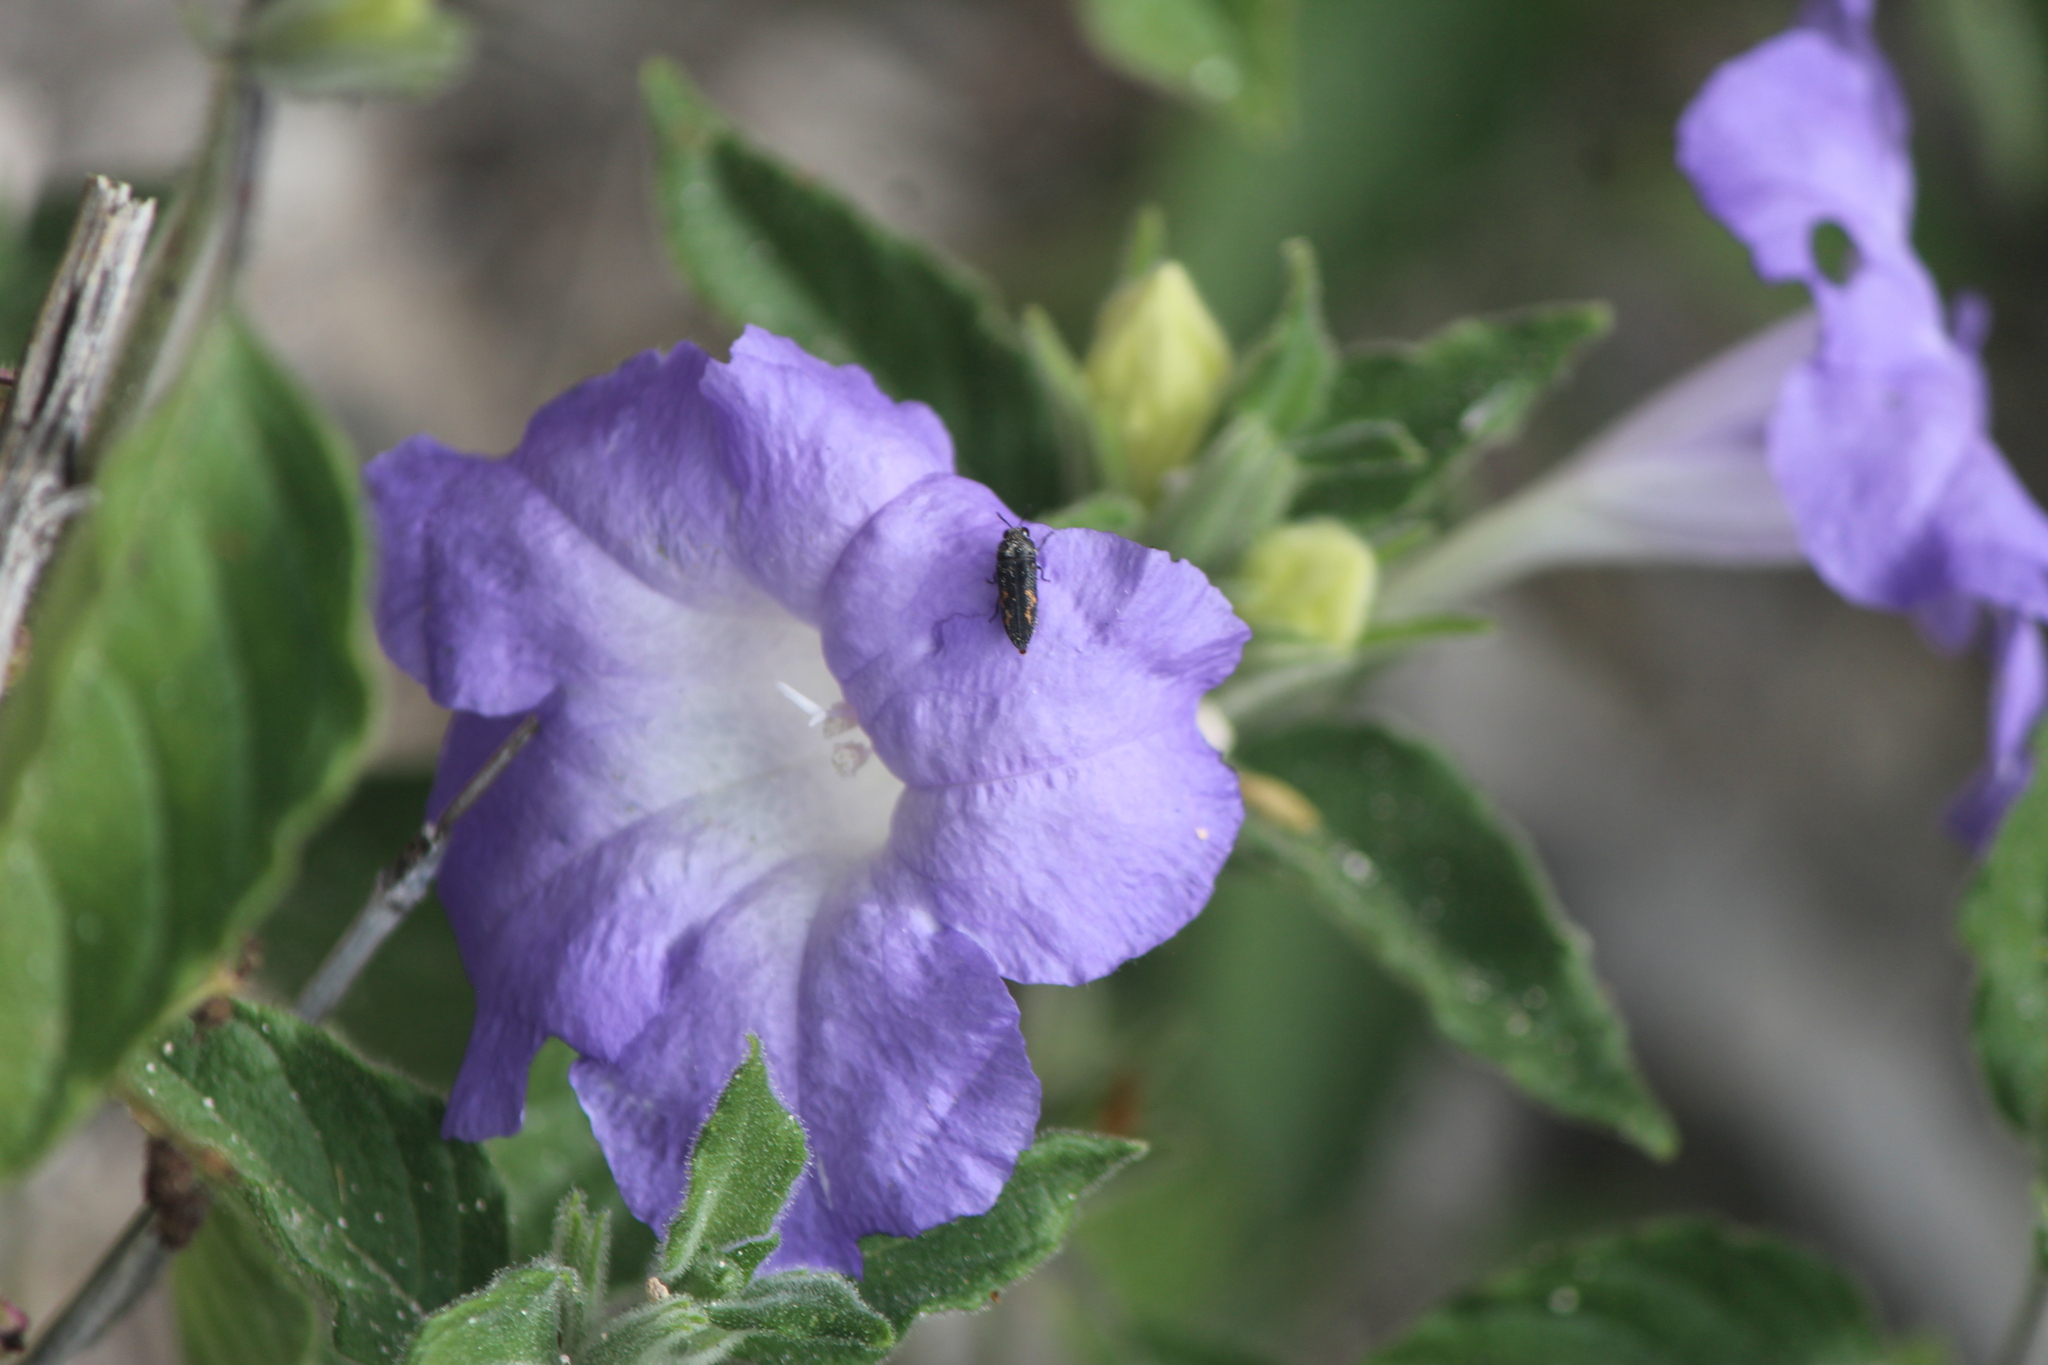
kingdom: Animalia
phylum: Arthropoda
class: Insecta
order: Coleoptera
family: Buprestidae
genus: Acmaeodera
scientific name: Acmaeodera setosa
